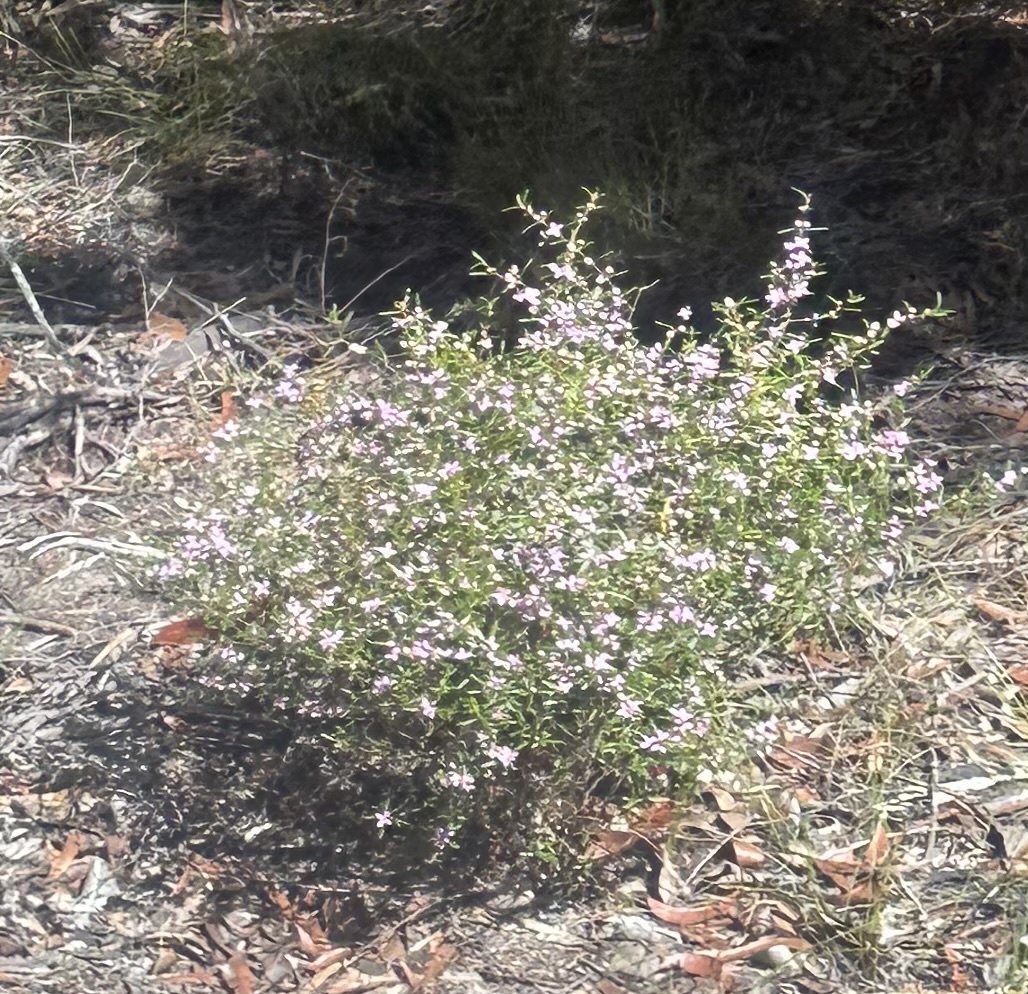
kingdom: Plantae
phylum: Tracheophyta
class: Magnoliopsida
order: Sapindales
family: Rutaceae
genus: Boronia
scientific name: Boronia rosmarinifolia
